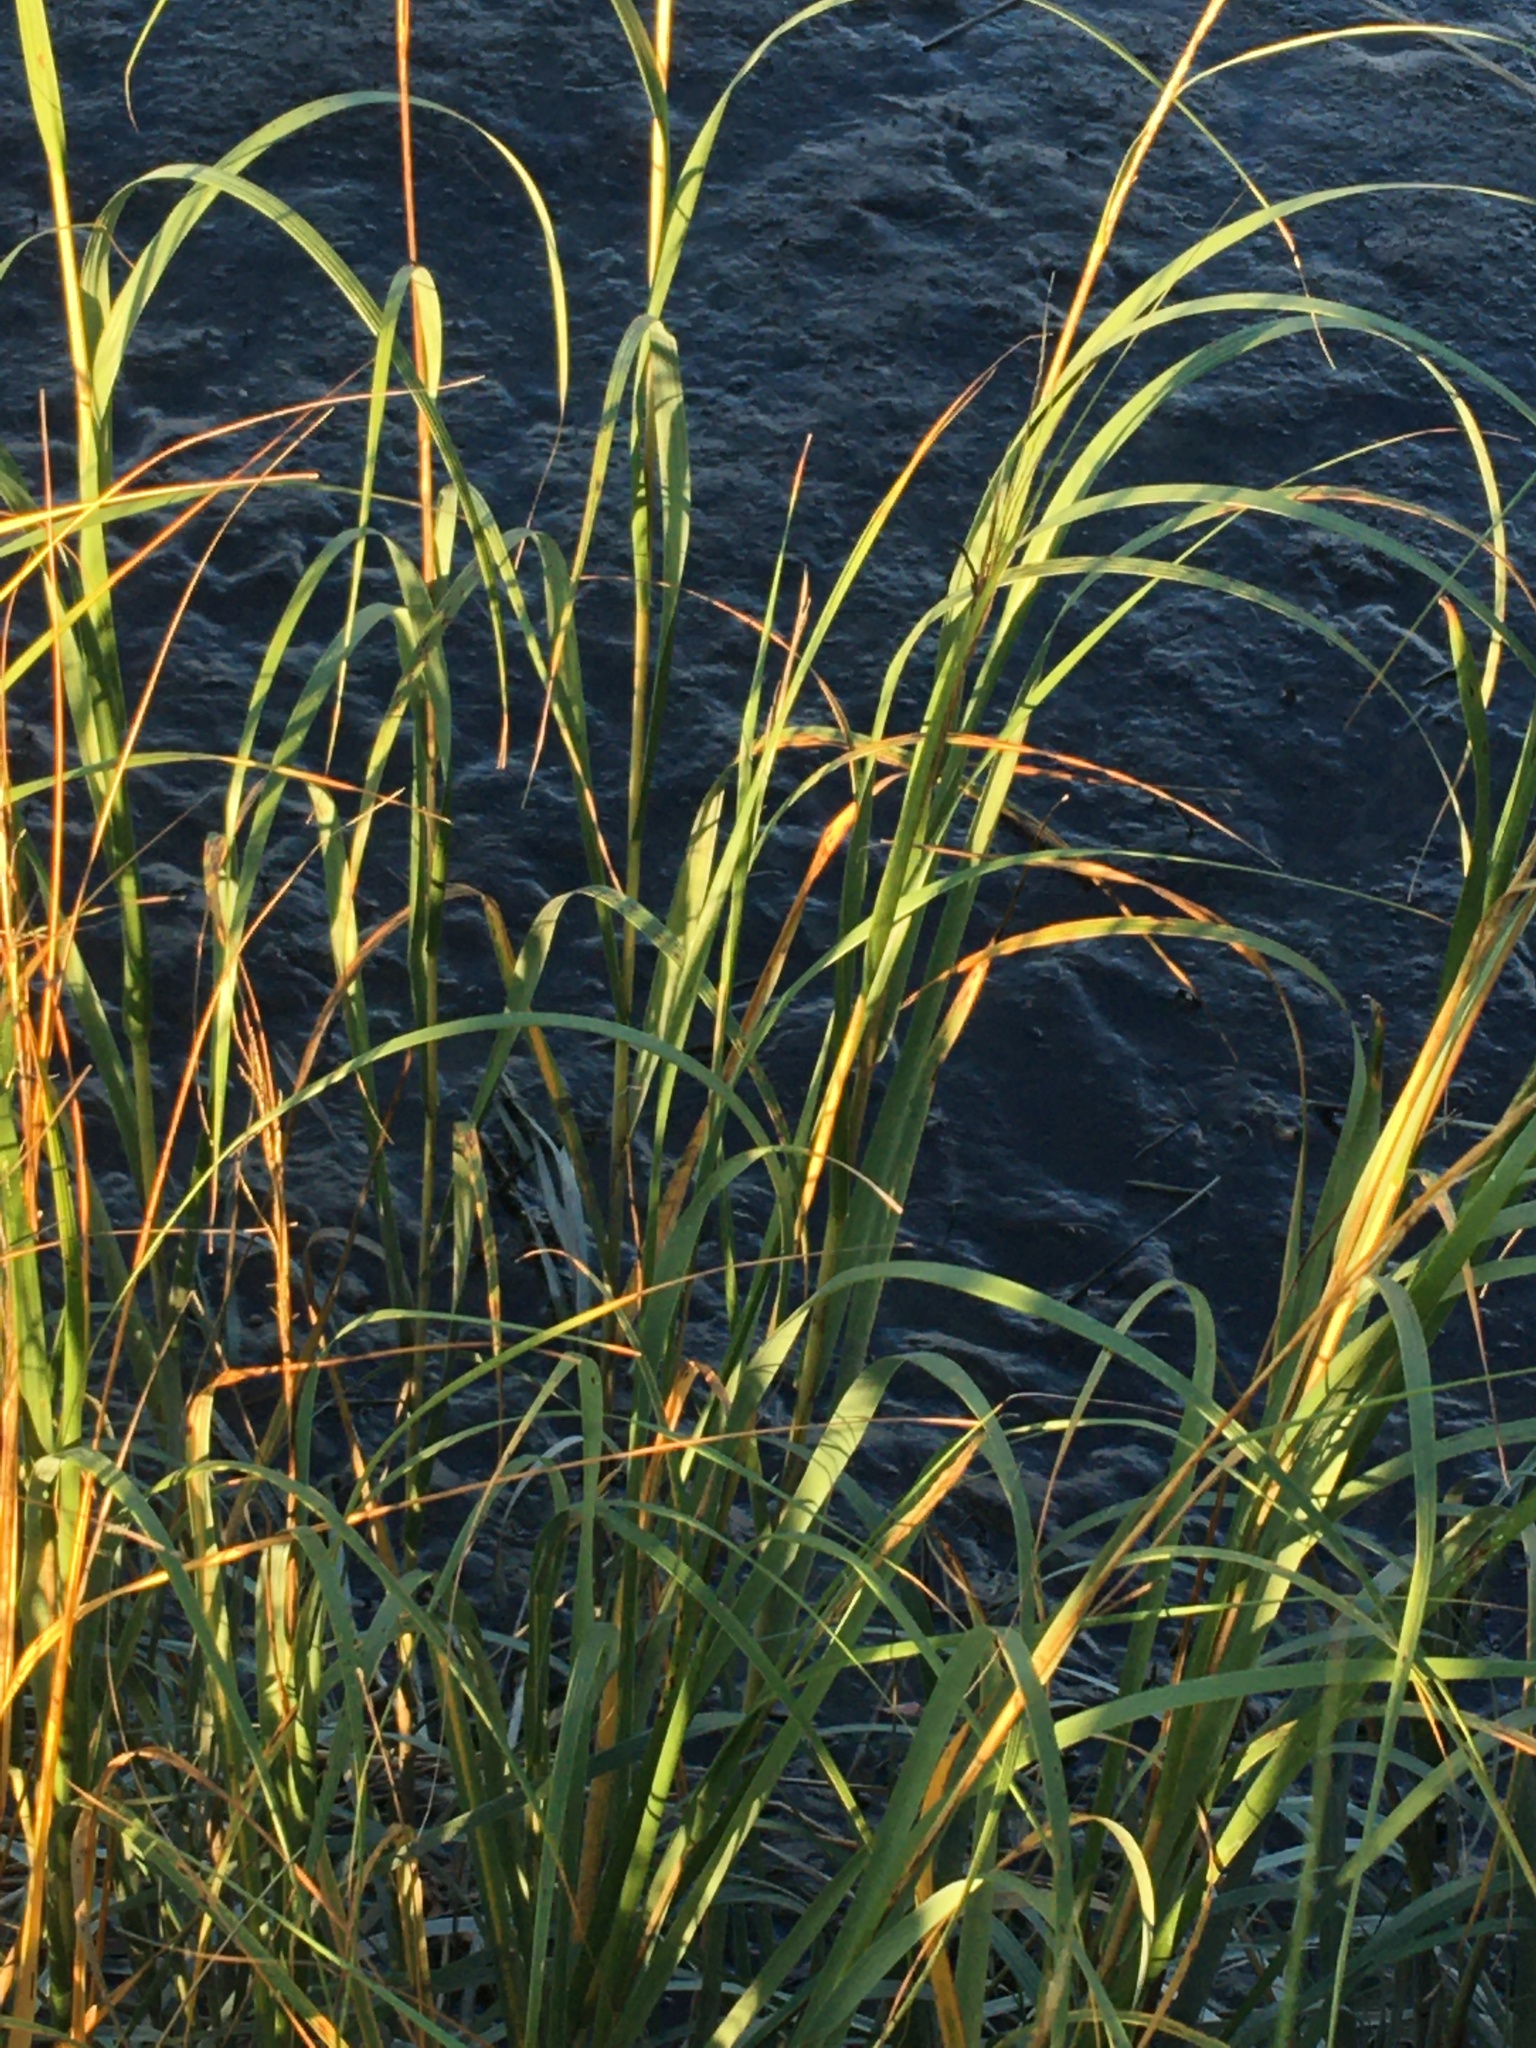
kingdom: Plantae
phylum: Tracheophyta
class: Liliopsida
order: Poales
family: Poaceae
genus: Sporobolus
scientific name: Sporobolus alterniflorus
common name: Atlantic cordgrass
